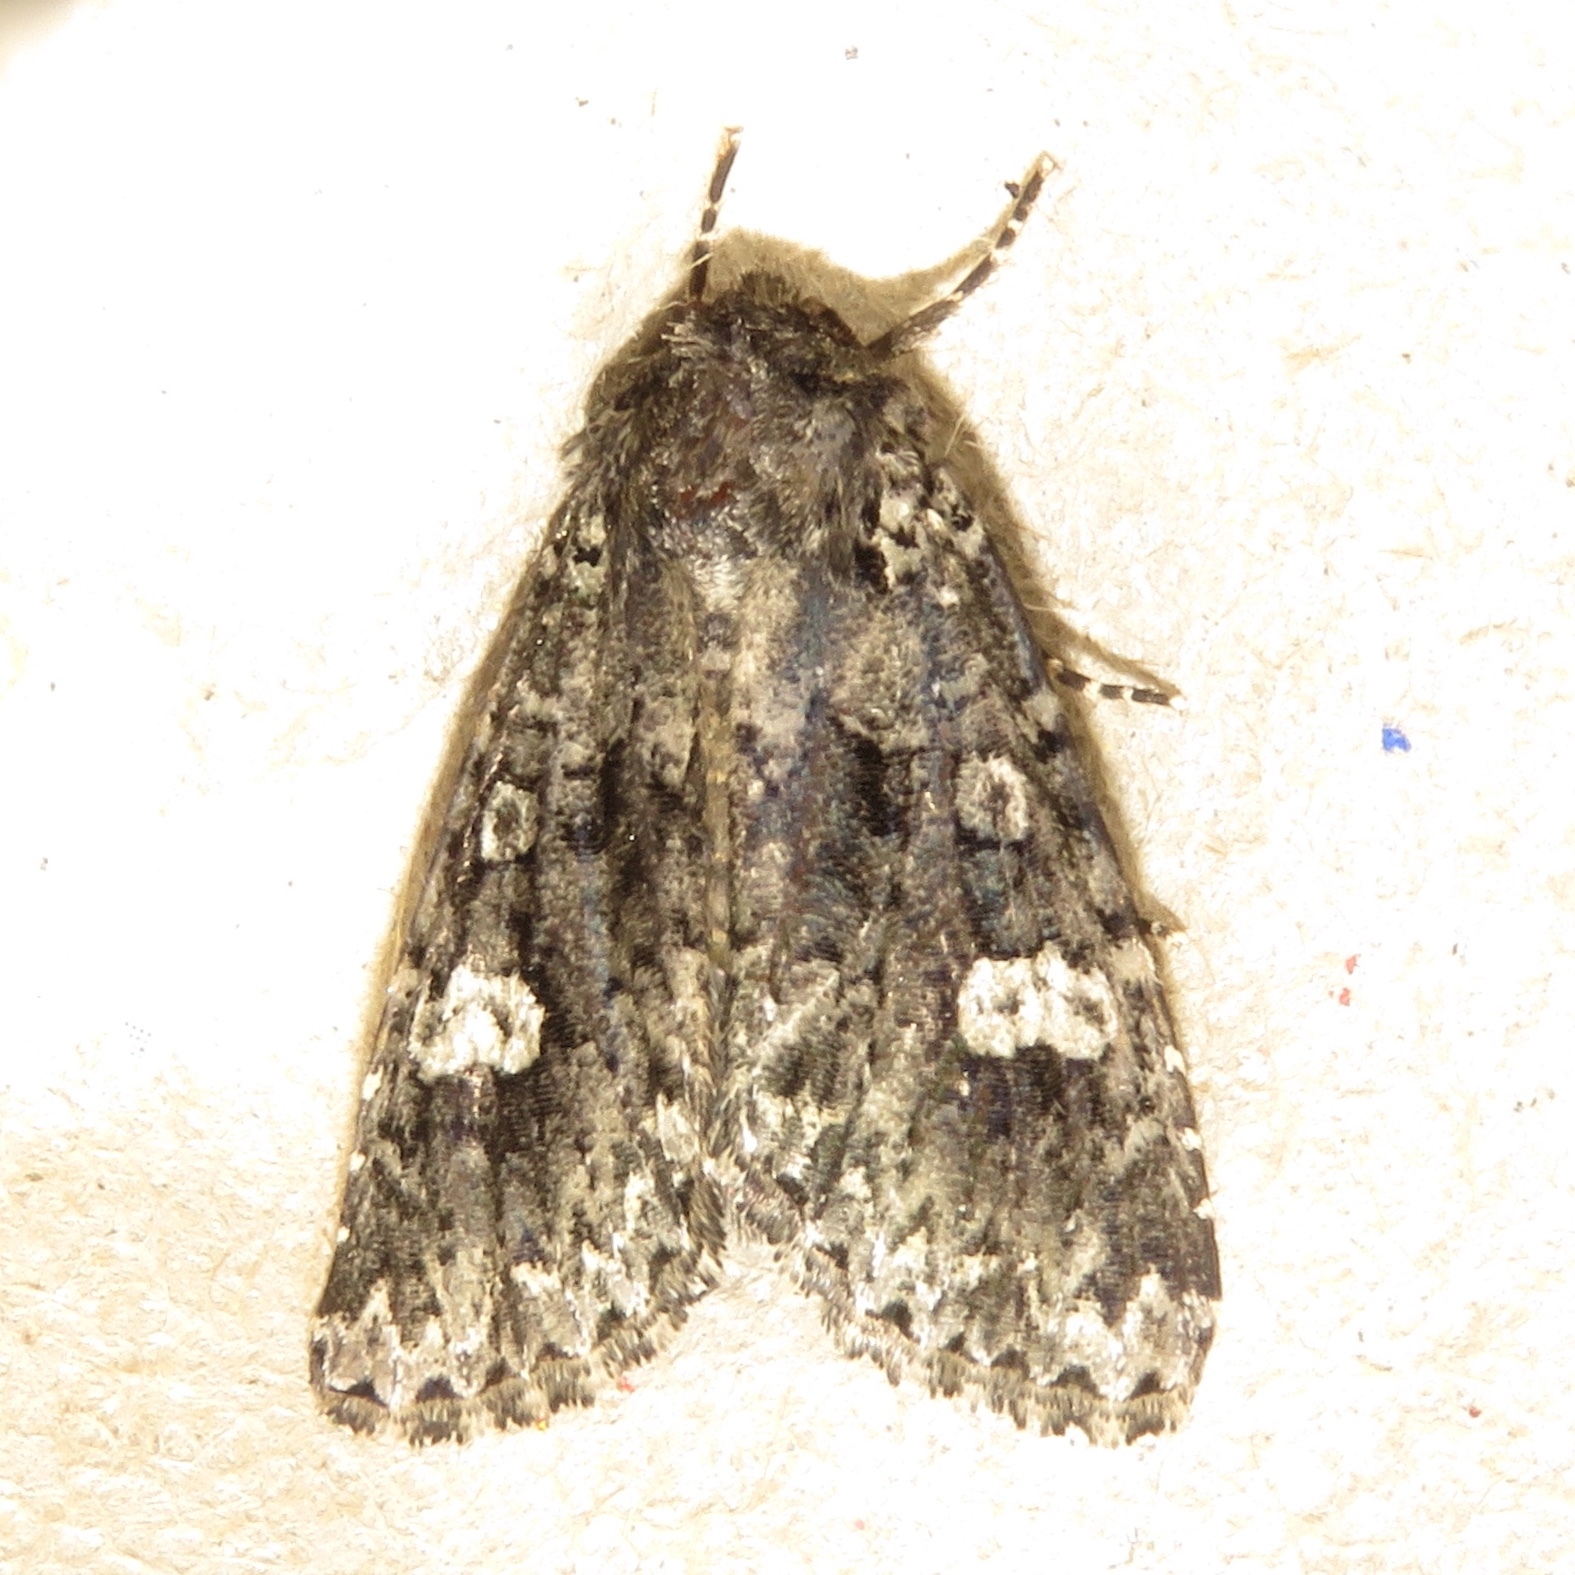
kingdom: Animalia
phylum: Arthropoda
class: Insecta
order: Lepidoptera
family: Noctuidae
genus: Melanchra
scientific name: Melanchra adjuncta
